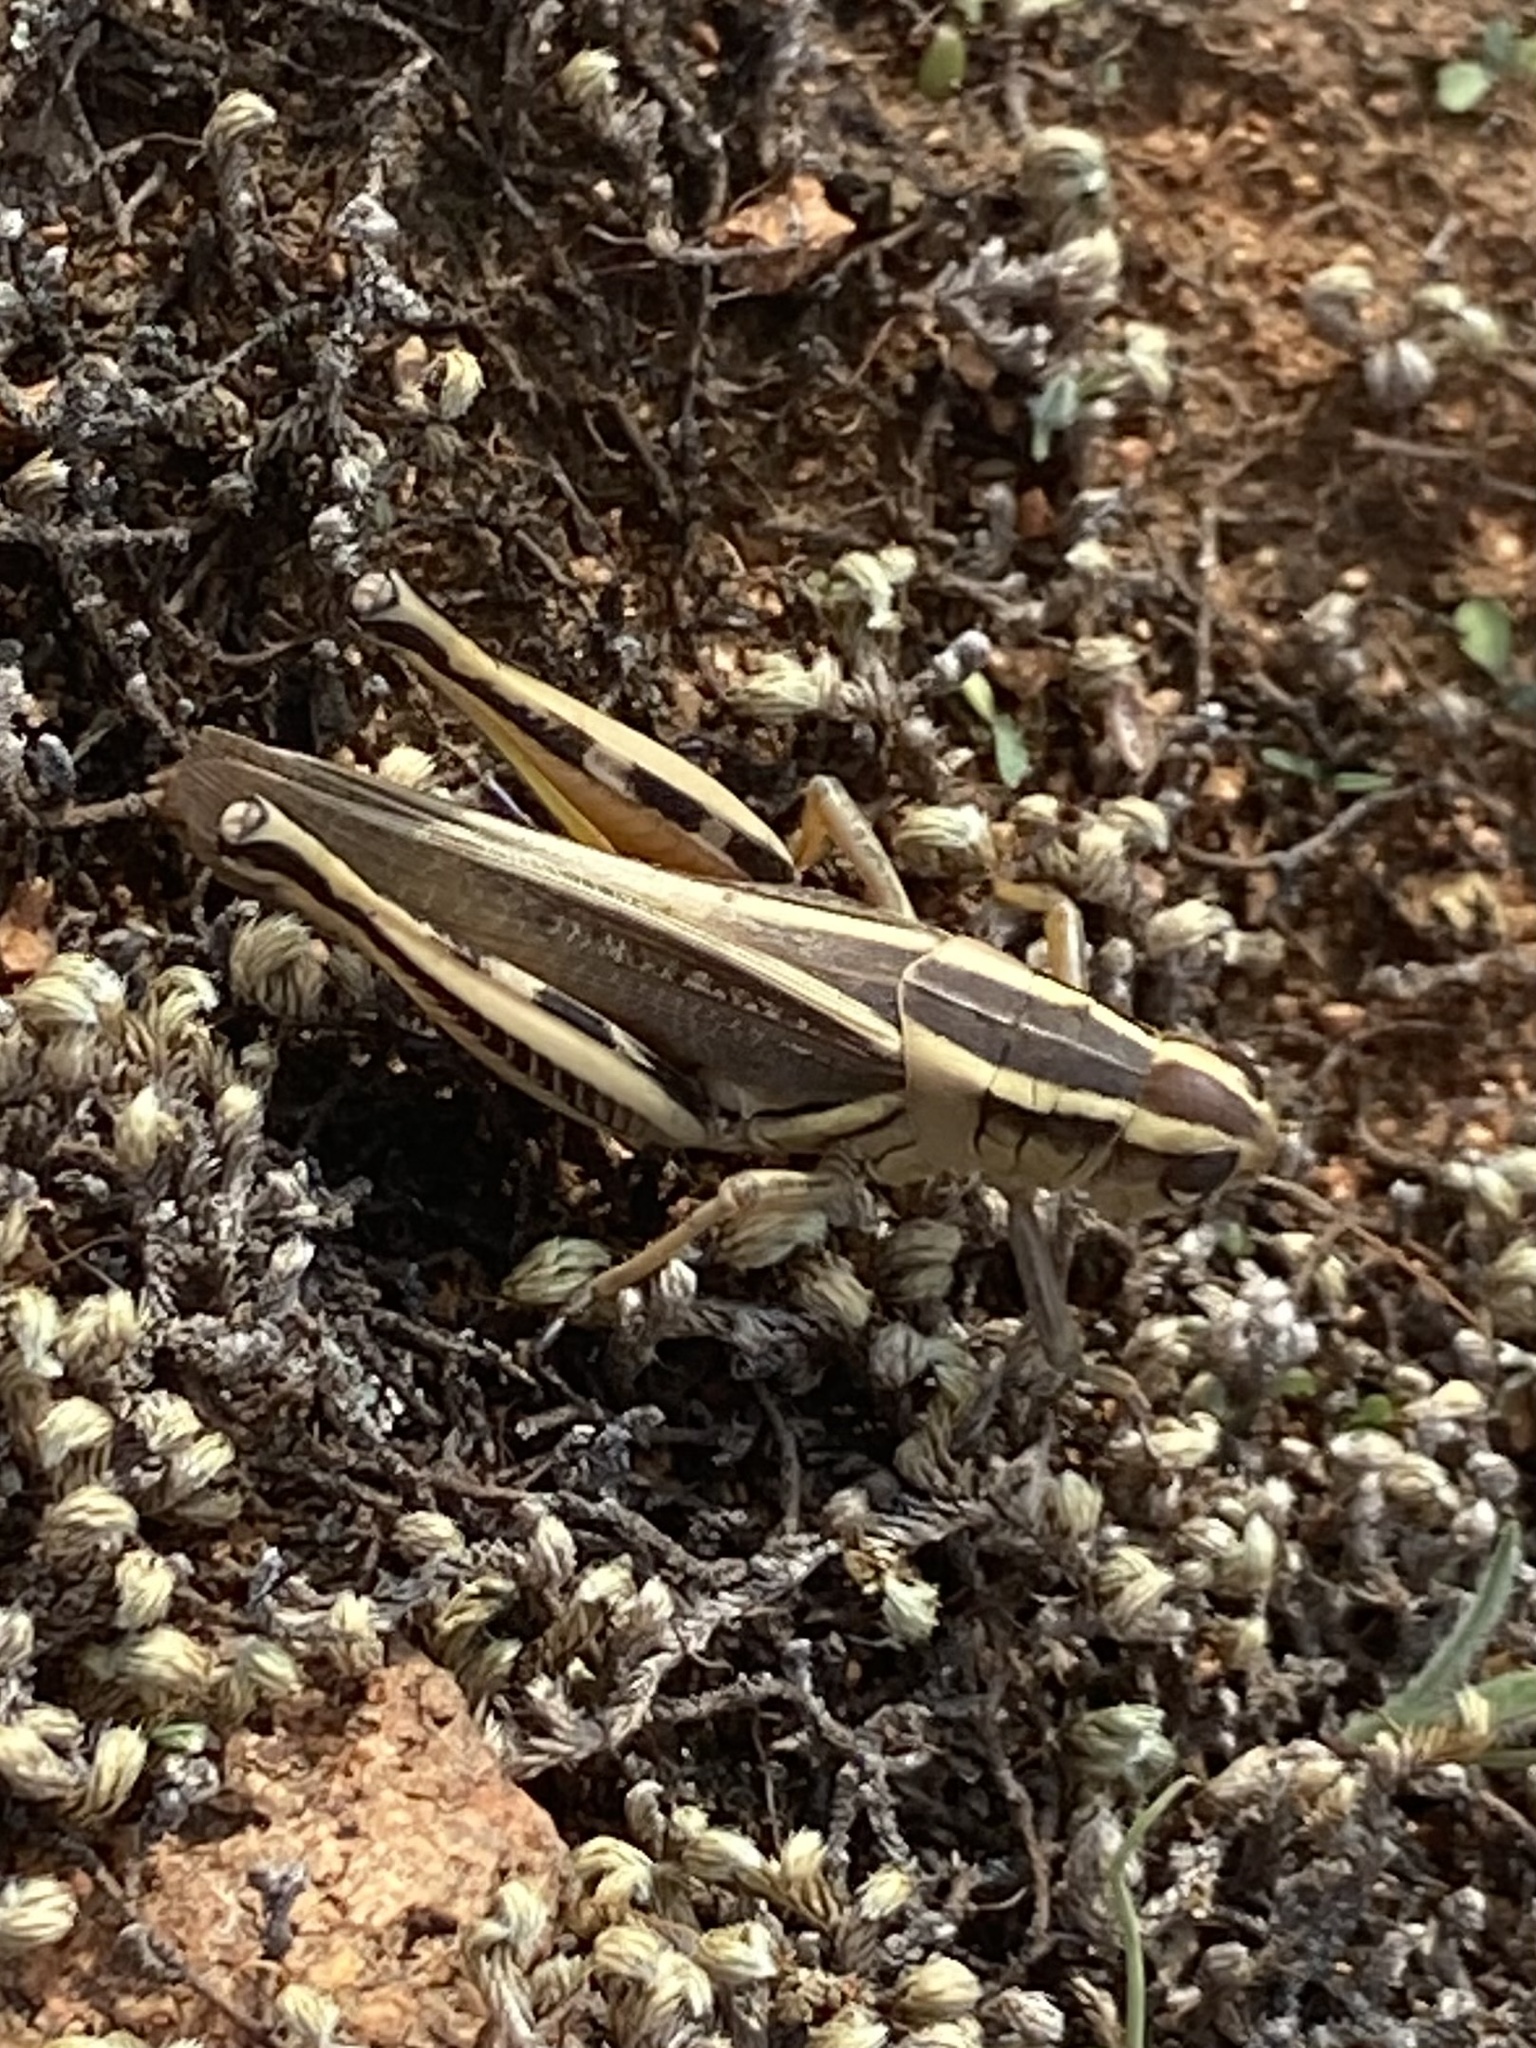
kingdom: Animalia
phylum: Arthropoda
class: Insecta
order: Orthoptera
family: Acrididae
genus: Melanoplus
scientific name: Melanoplus bivittatus
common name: Two-striped grasshopper
